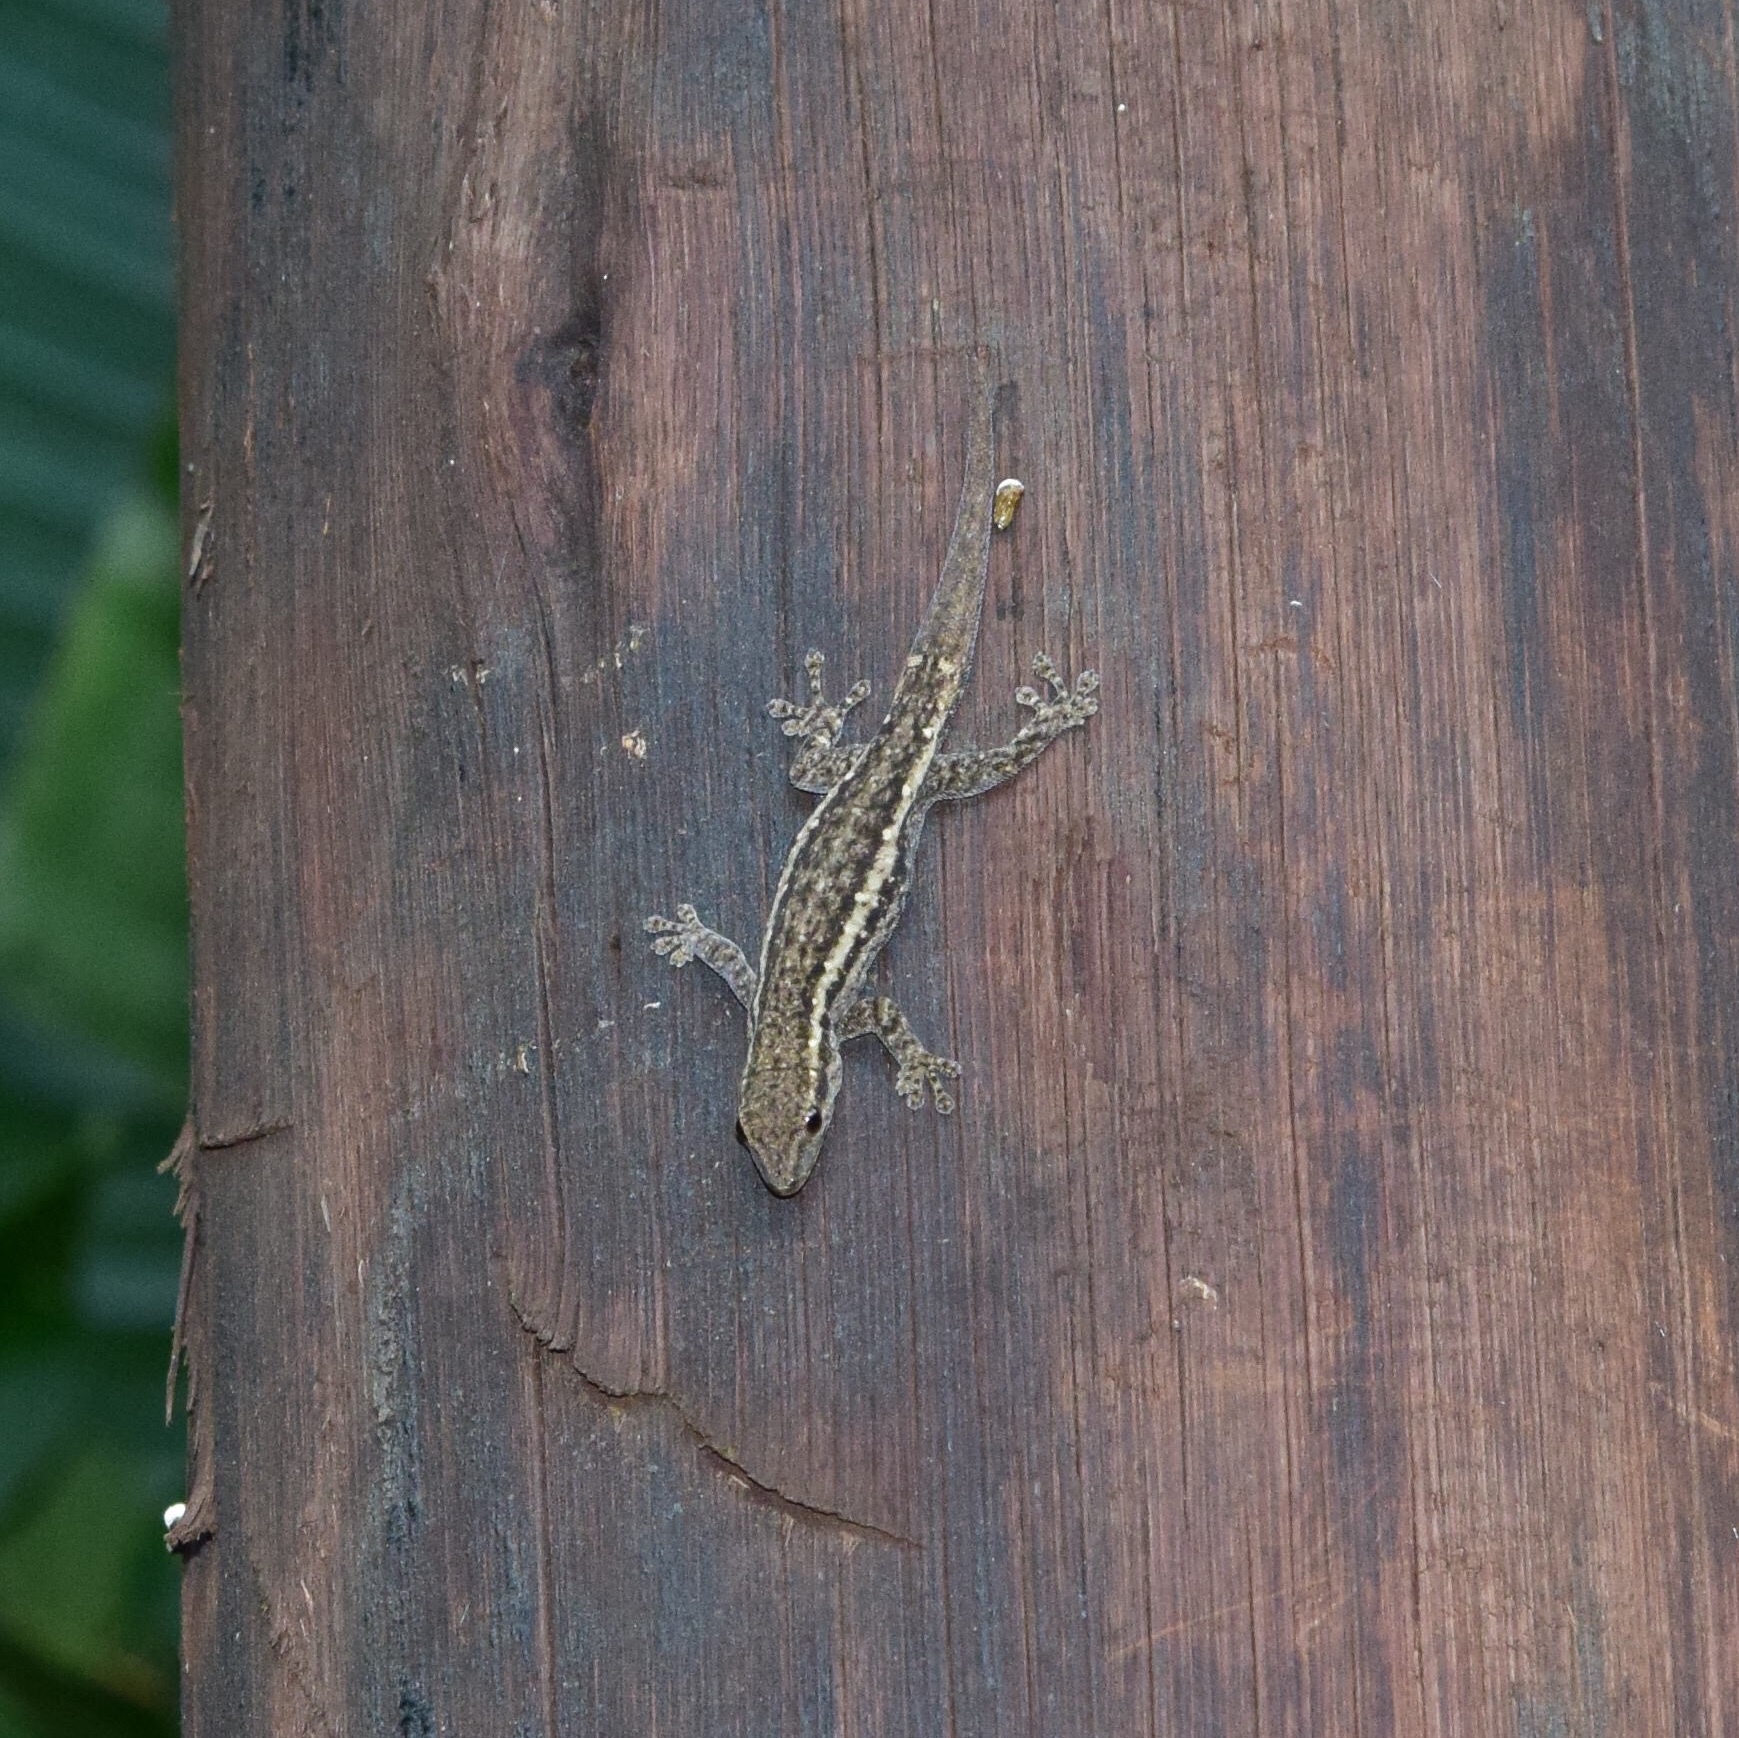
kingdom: Animalia
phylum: Chordata
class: Squamata
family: Gekkonidae
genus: Lygodactylus
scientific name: Lygodactylus capensis
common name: Cape dwarf gecko
